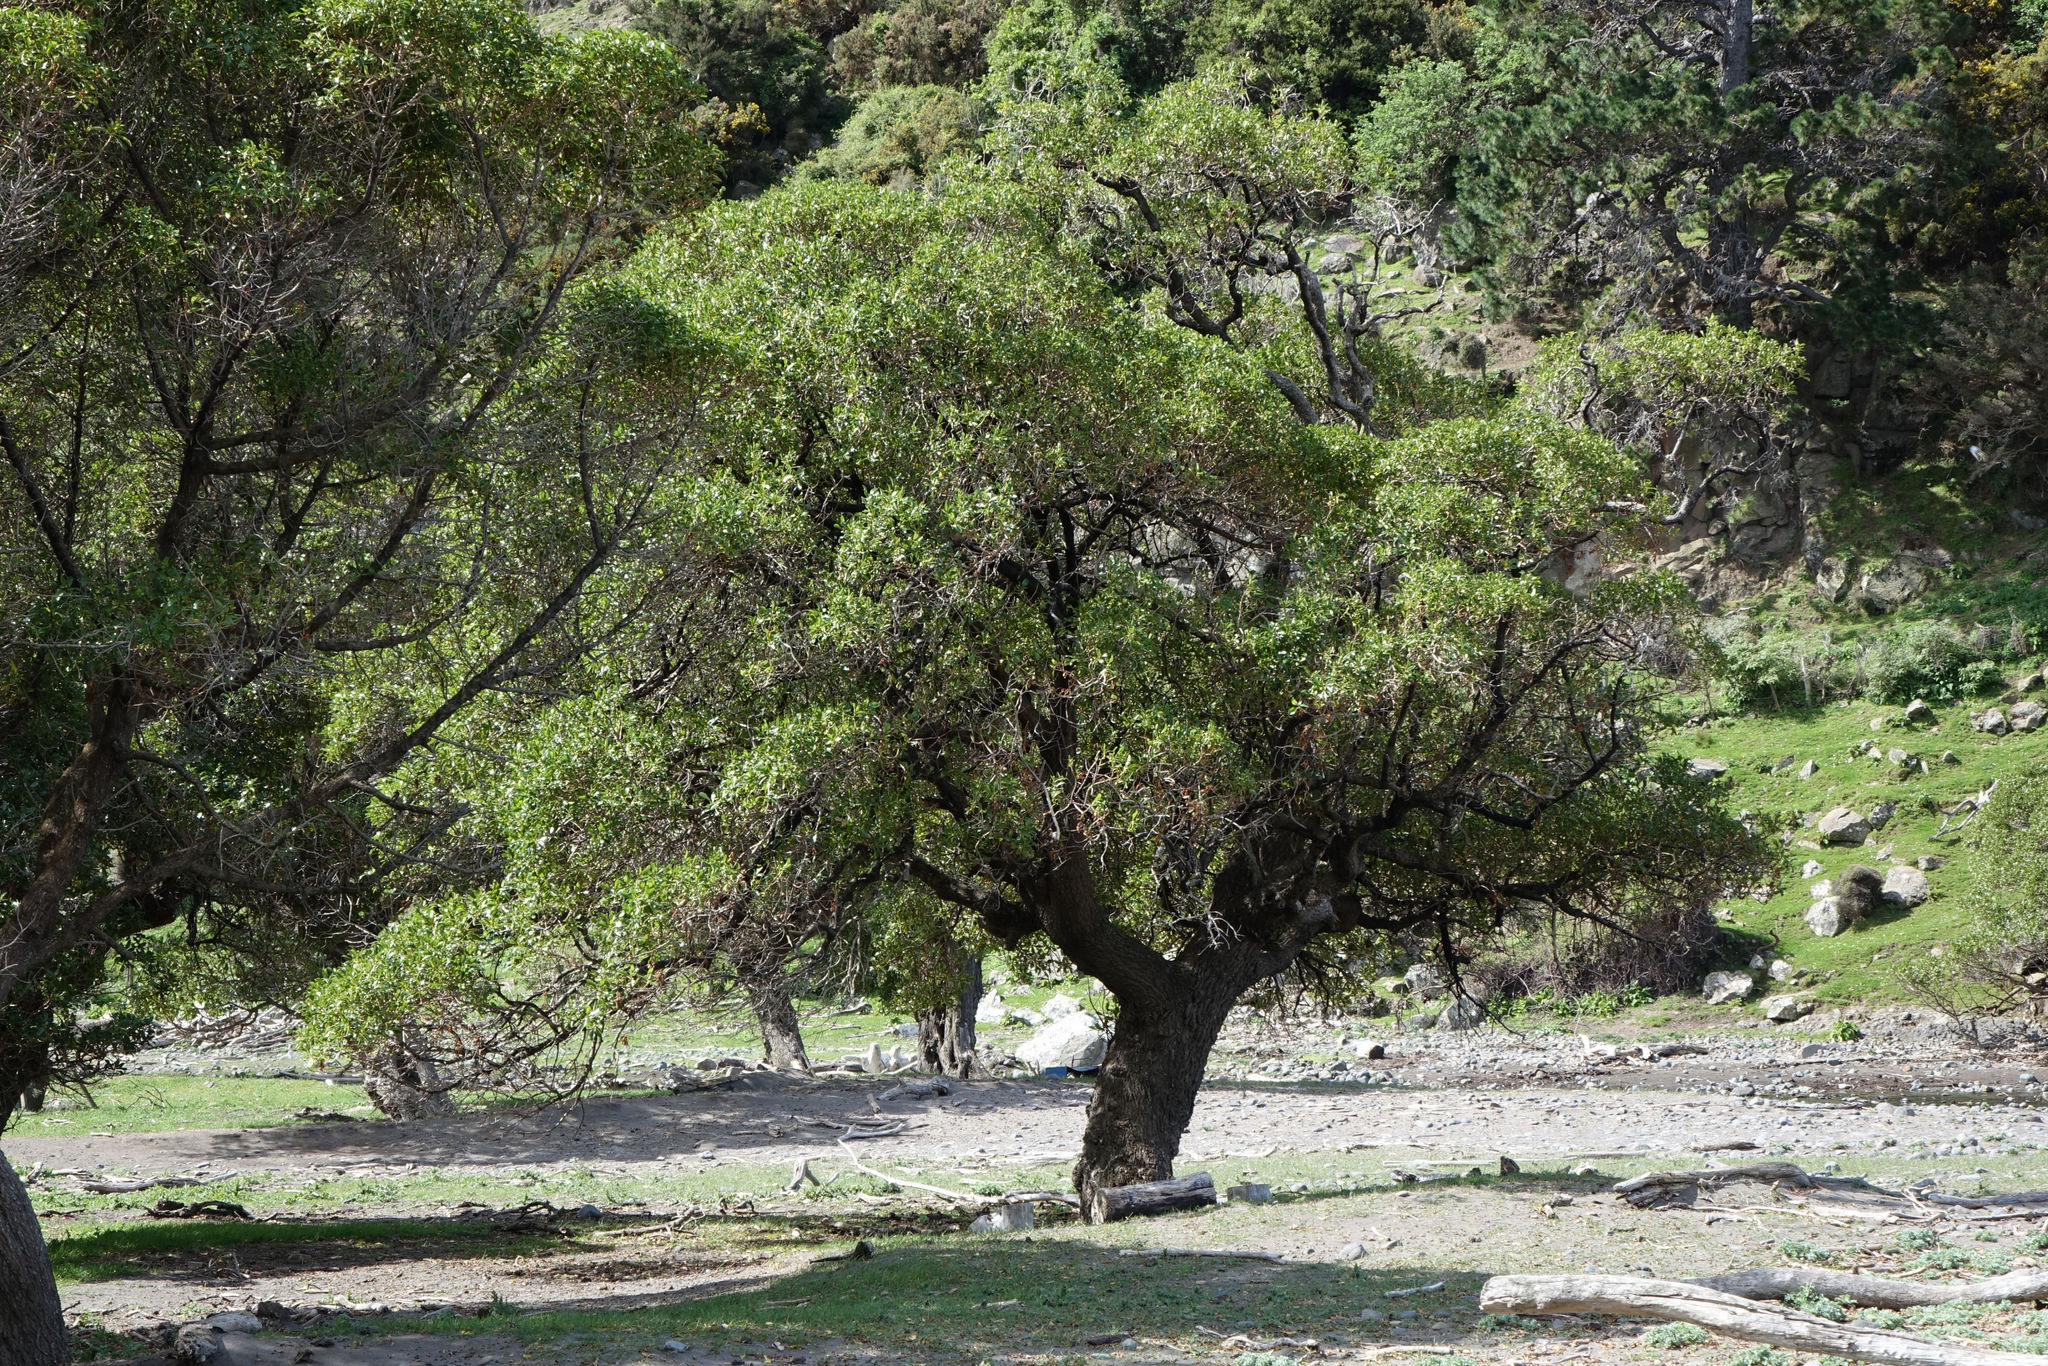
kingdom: Plantae
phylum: Tracheophyta
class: Magnoliopsida
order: Lamiales
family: Scrophulariaceae
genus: Myoporum
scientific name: Myoporum laetum
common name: Ngaio tree
